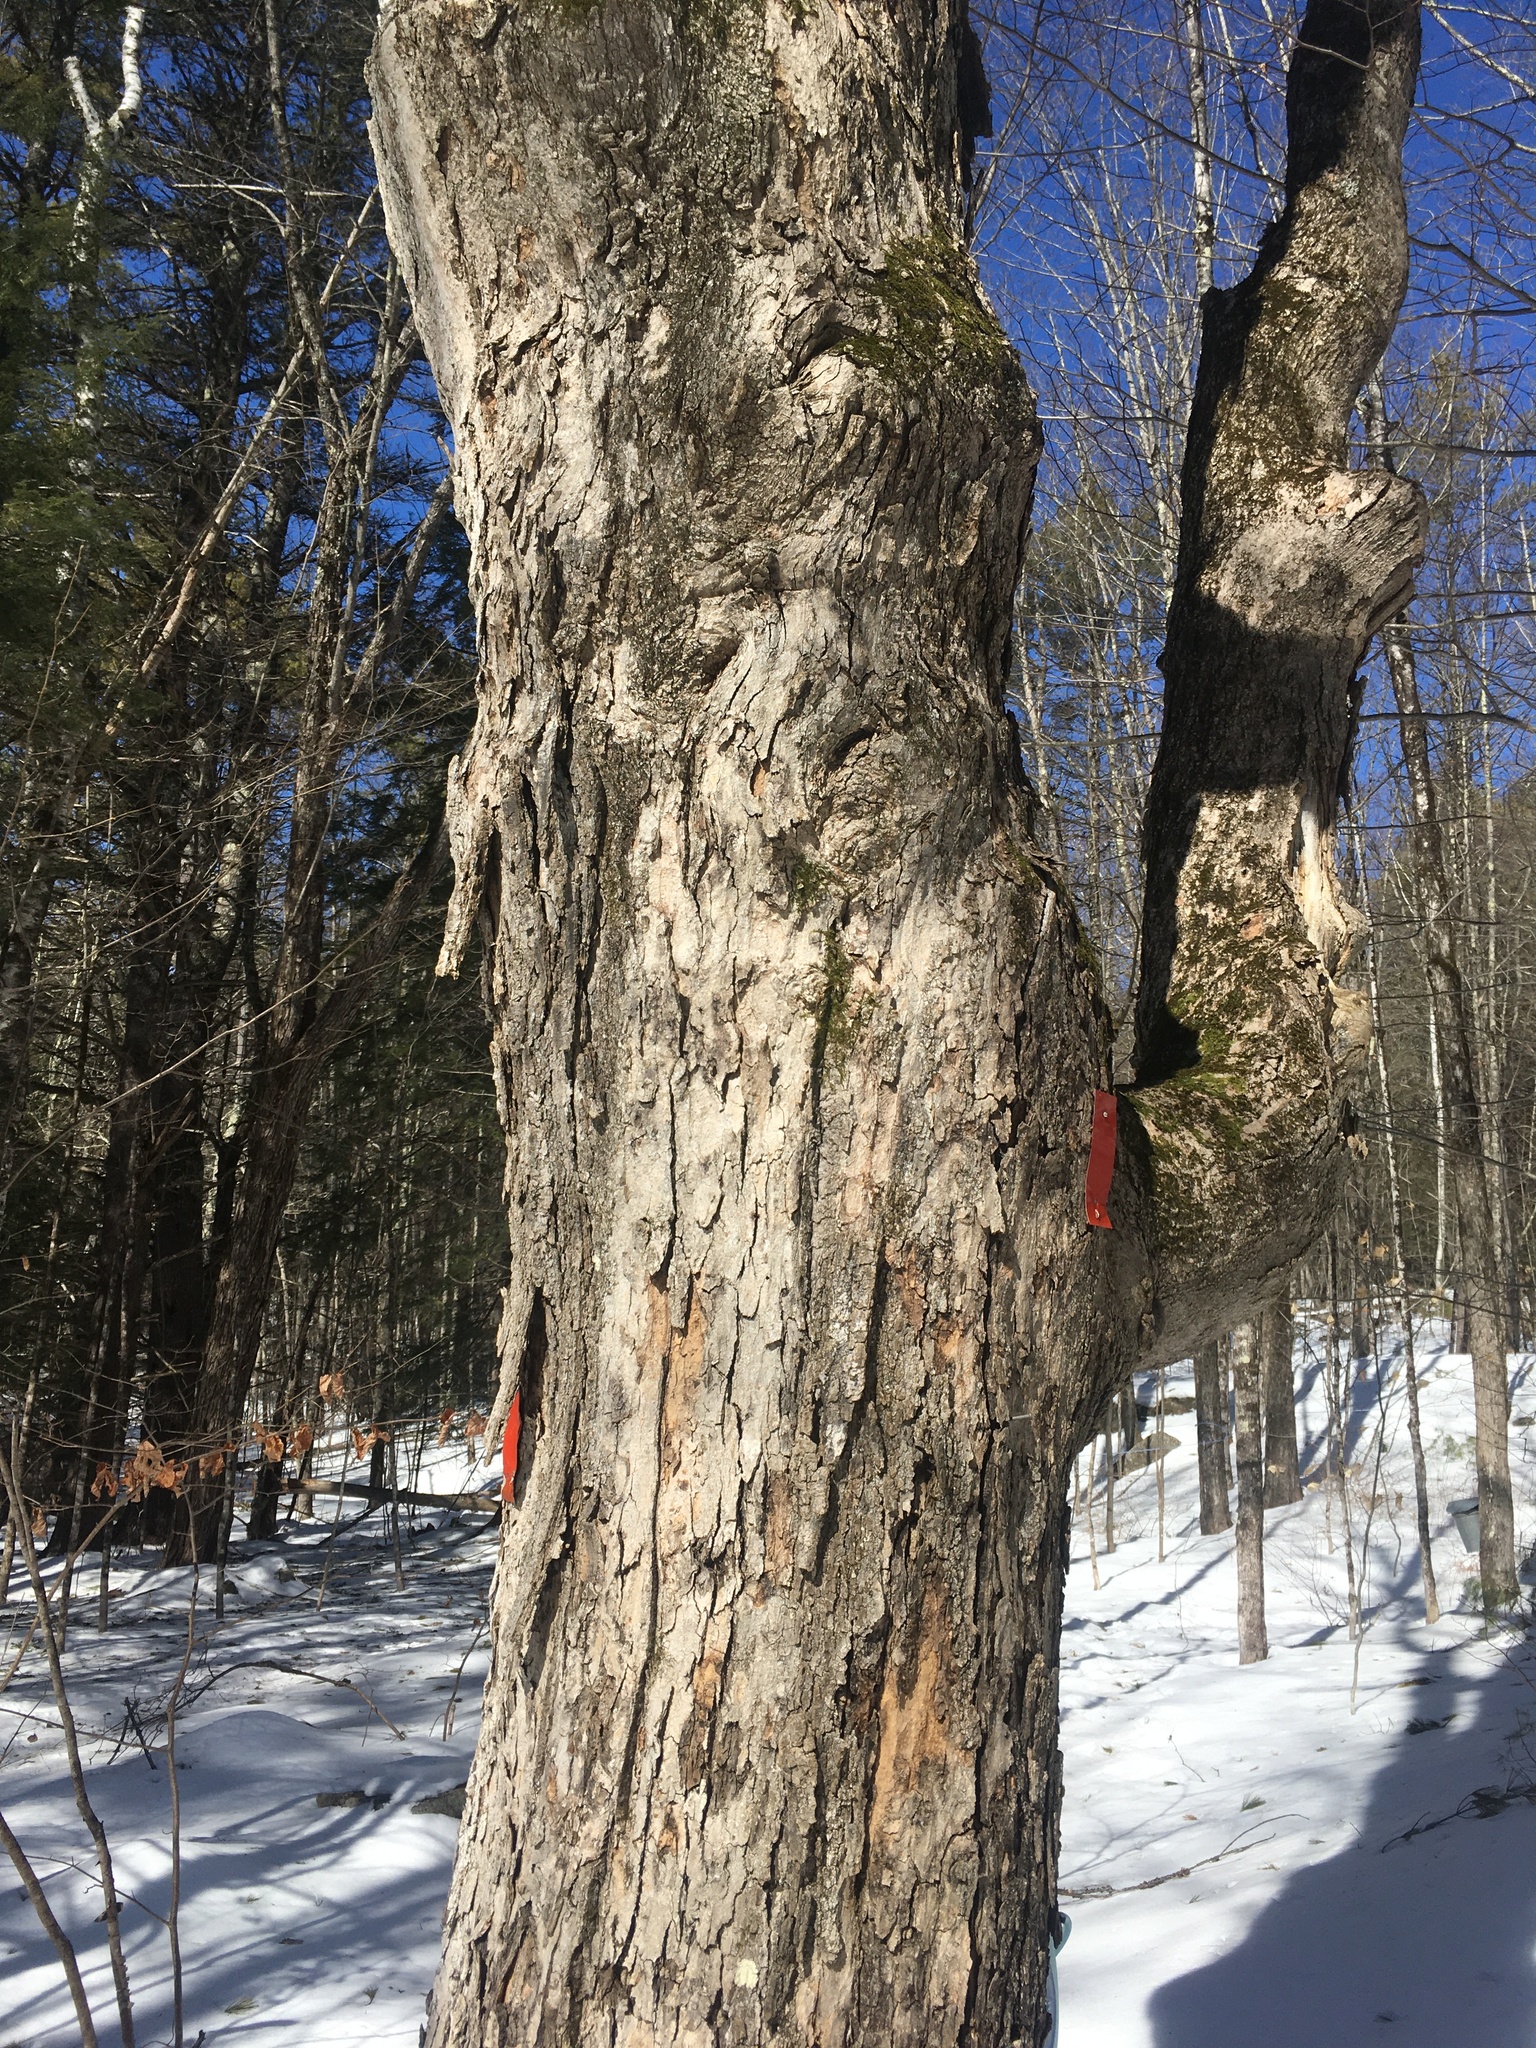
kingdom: Plantae
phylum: Tracheophyta
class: Magnoliopsida
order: Sapindales
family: Sapindaceae
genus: Acer
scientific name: Acer saccharum
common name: Sugar maple
